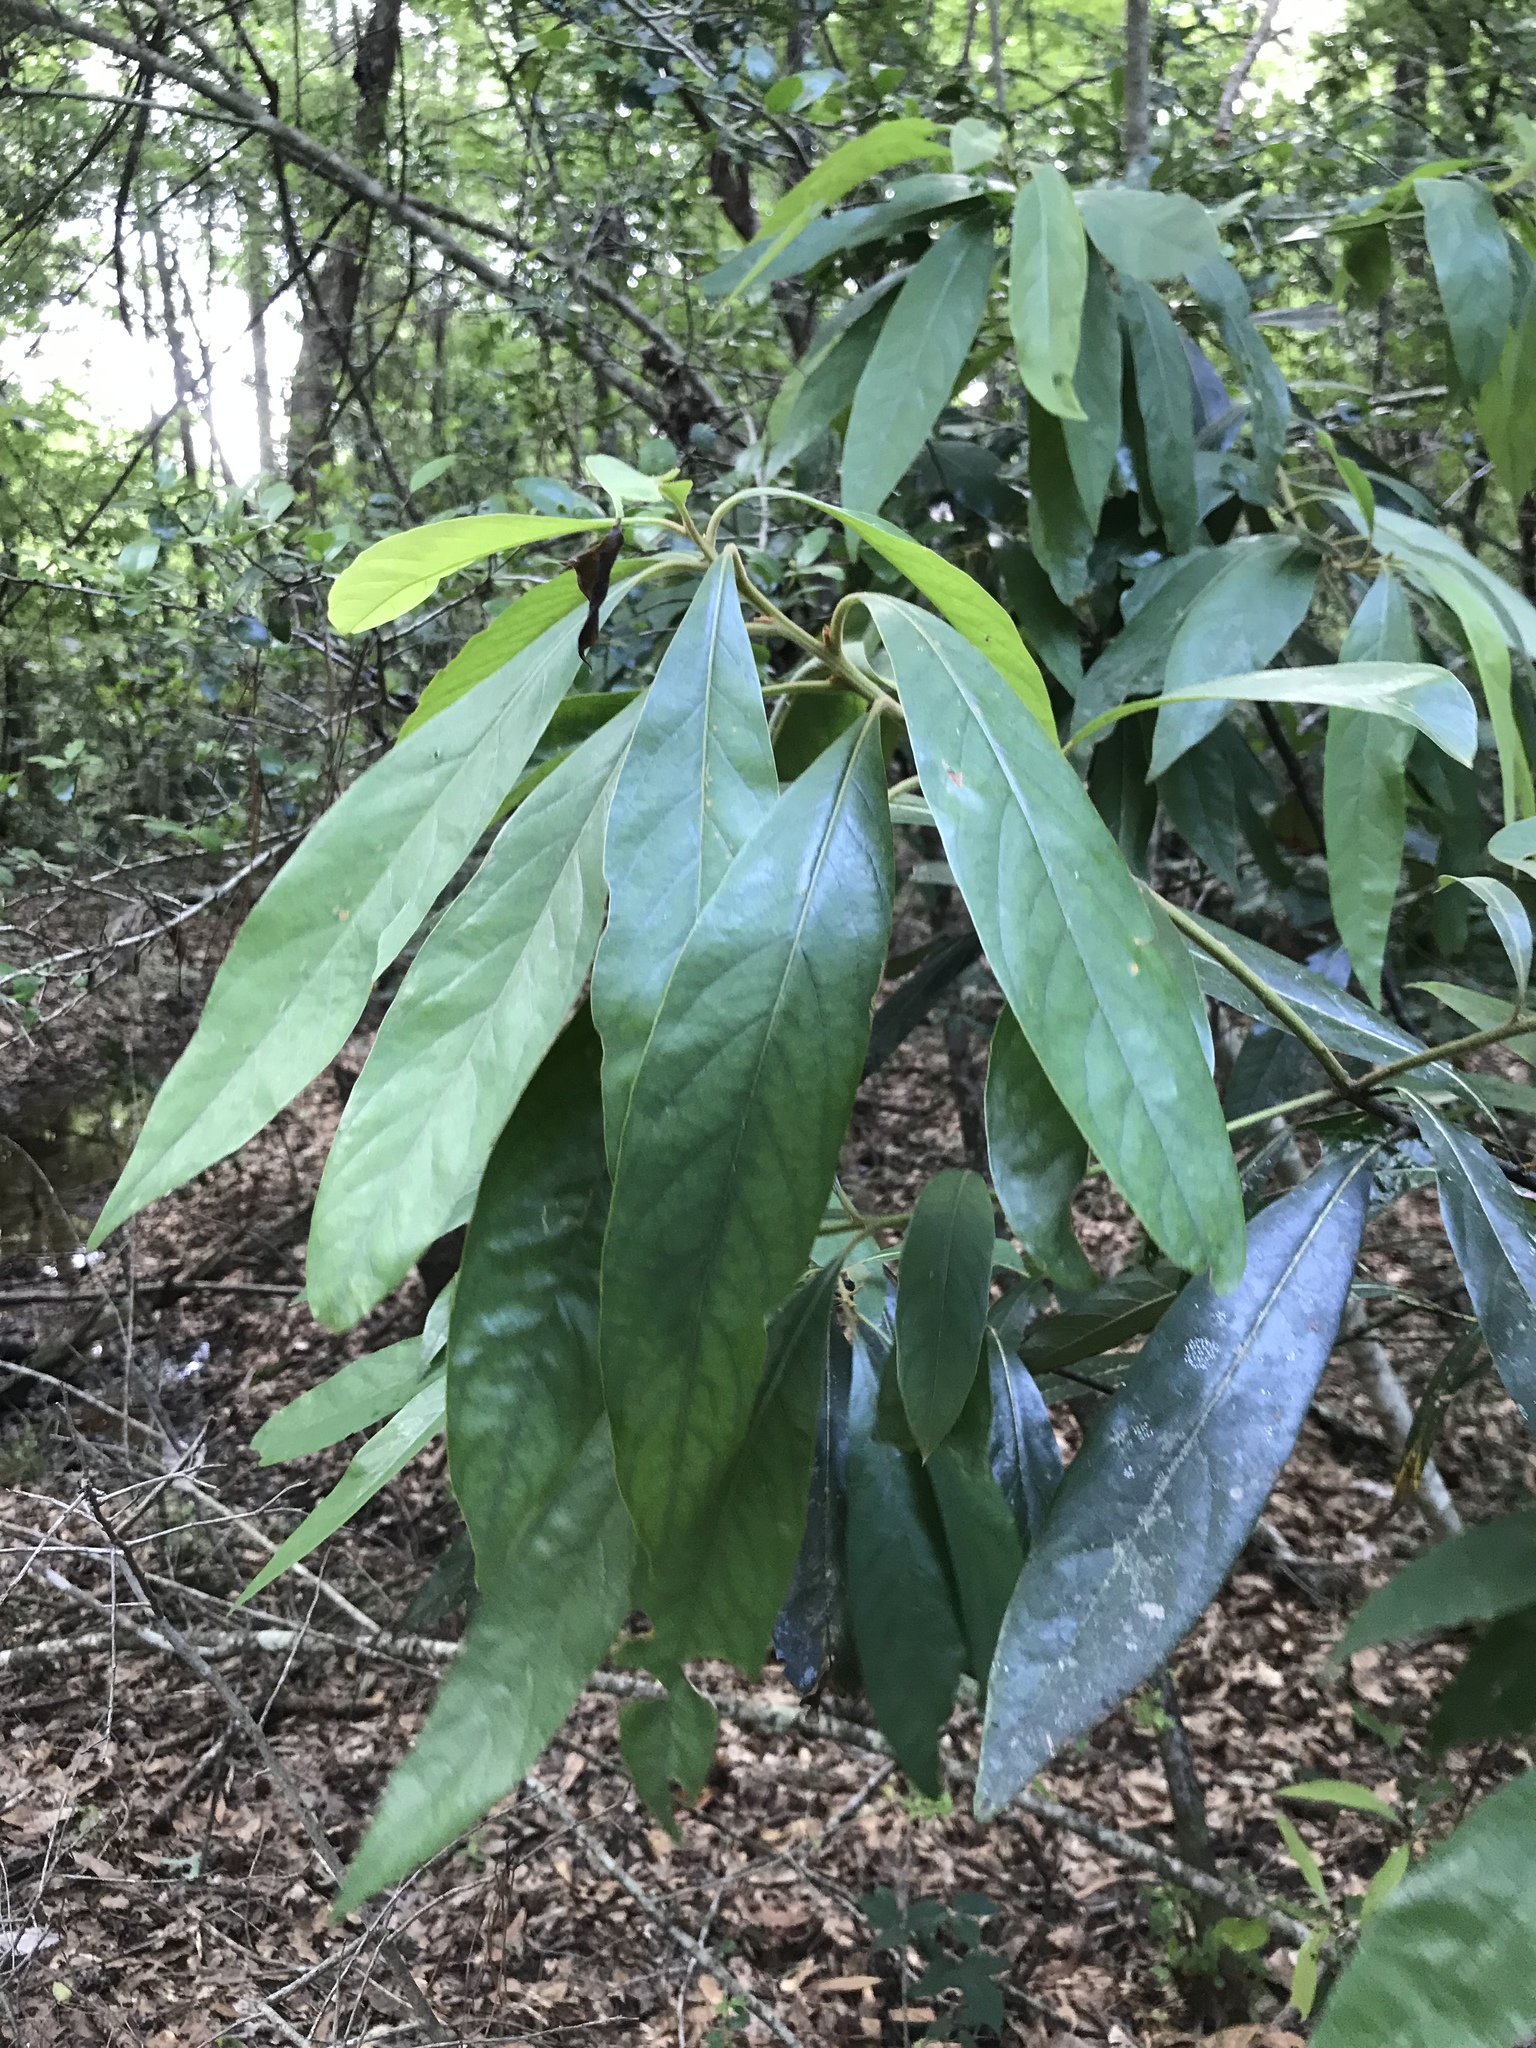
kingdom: Plantae
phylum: Tracheophyta
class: Magnoliopsida
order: Laurales
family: Lauraceae
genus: Persea
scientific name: Persea palustris
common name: Swampbay
